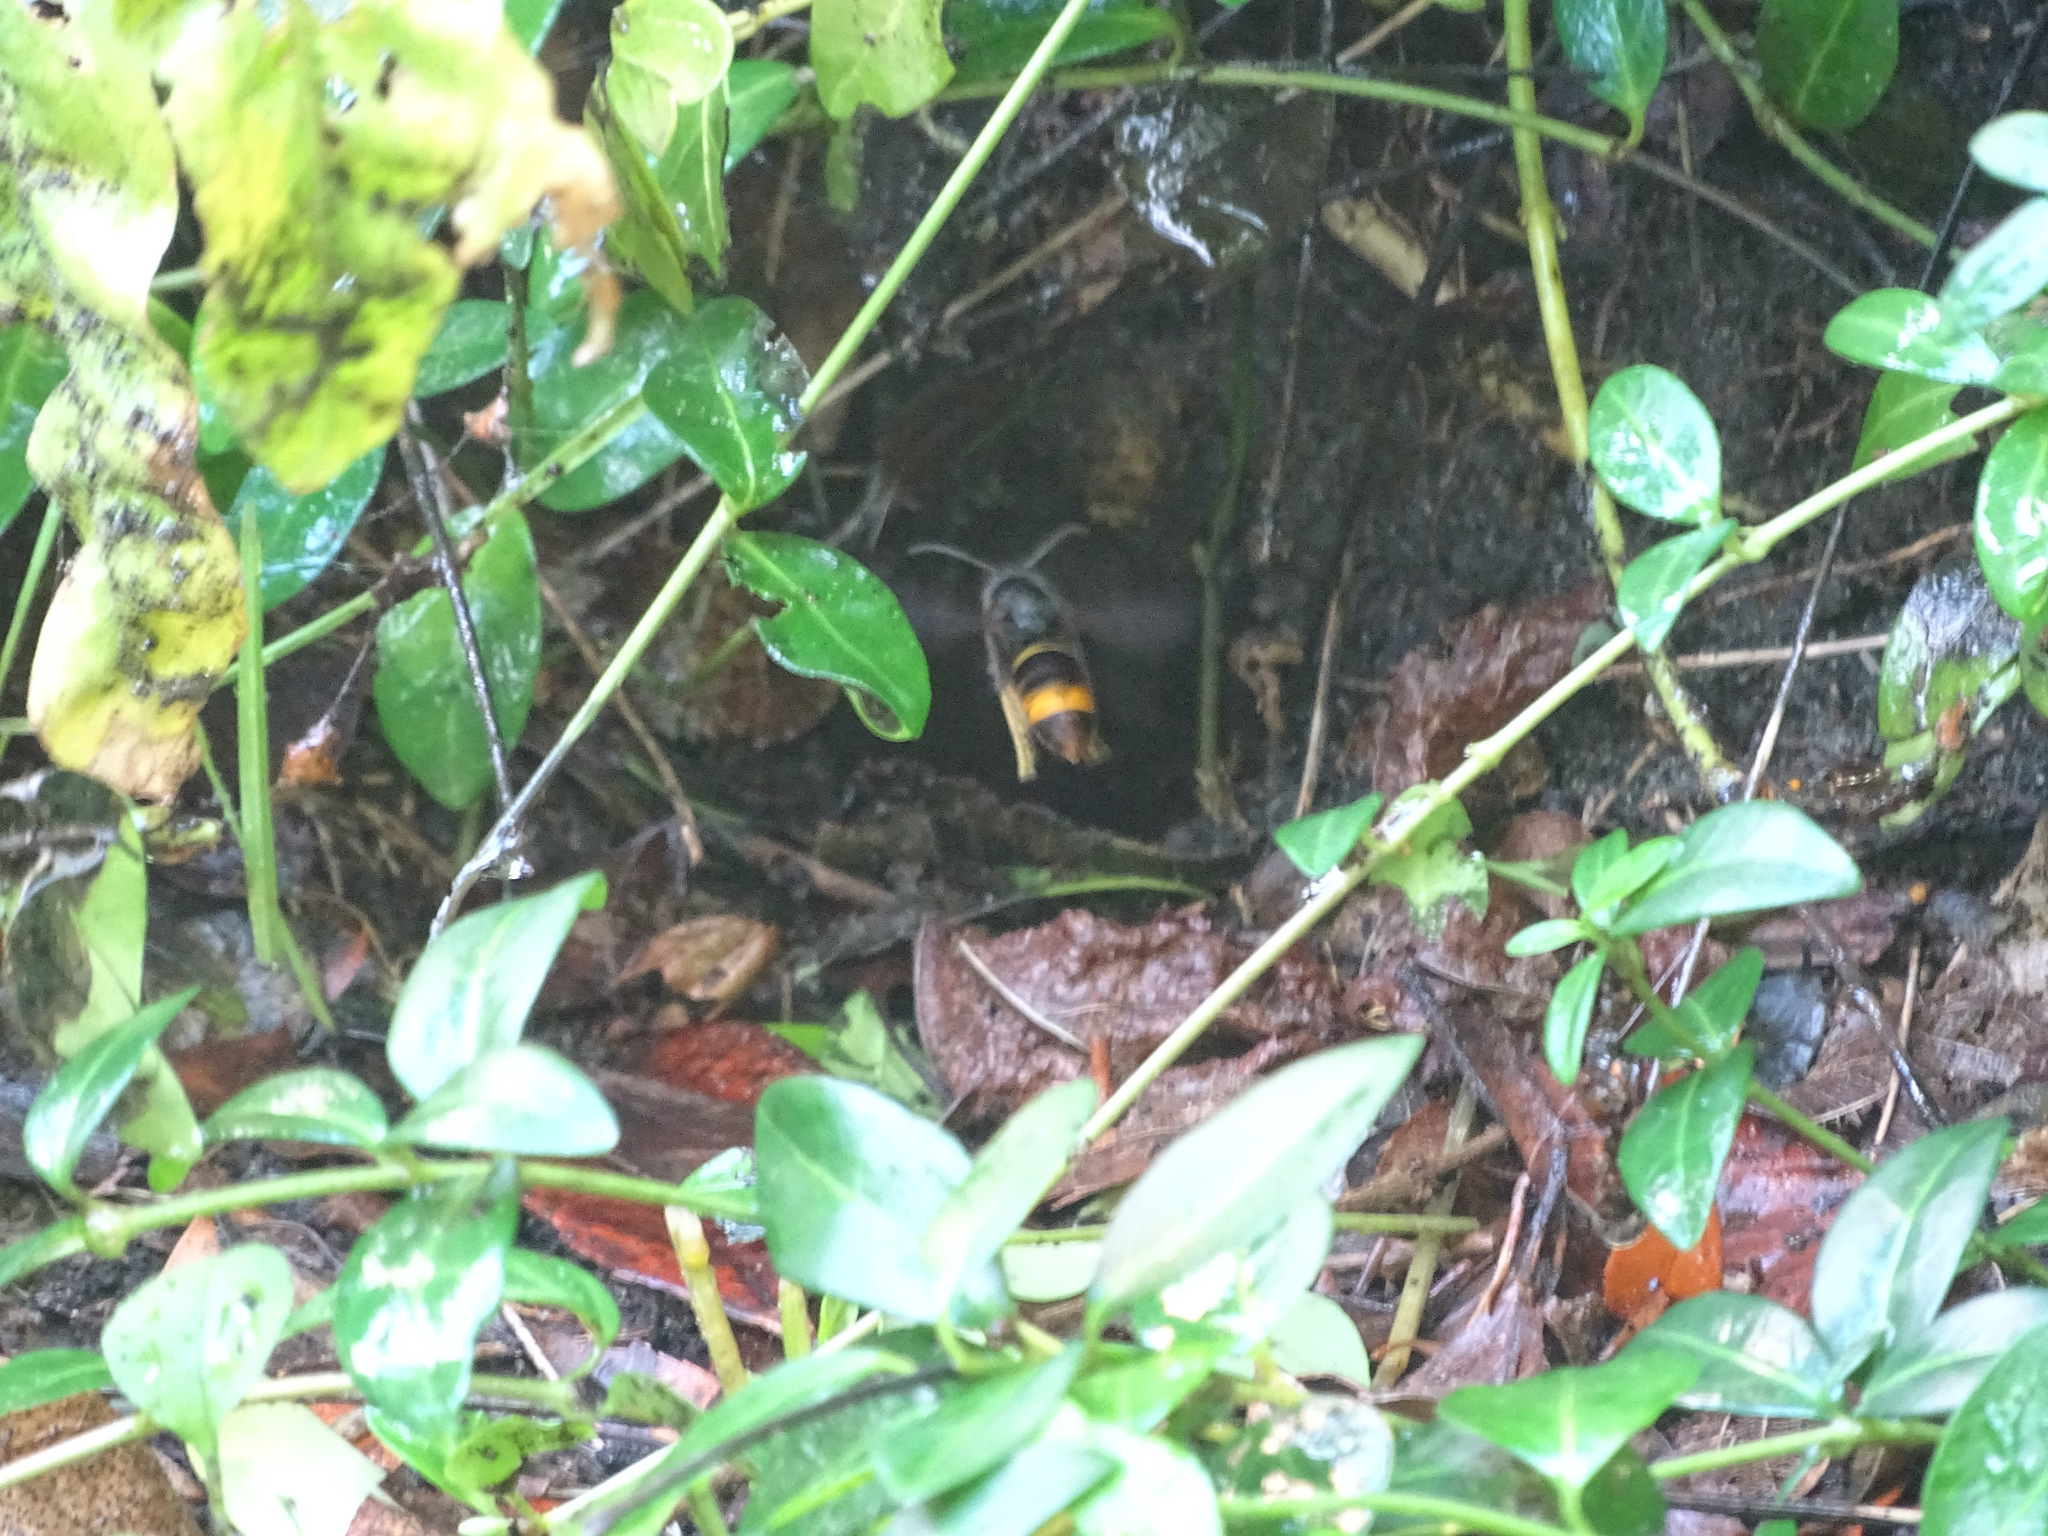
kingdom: Animalia
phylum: Arthropoda
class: Insecta
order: Hymenoptera
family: Vespidae
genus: Vespa
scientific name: Vespa velutina
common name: Asian hornet
